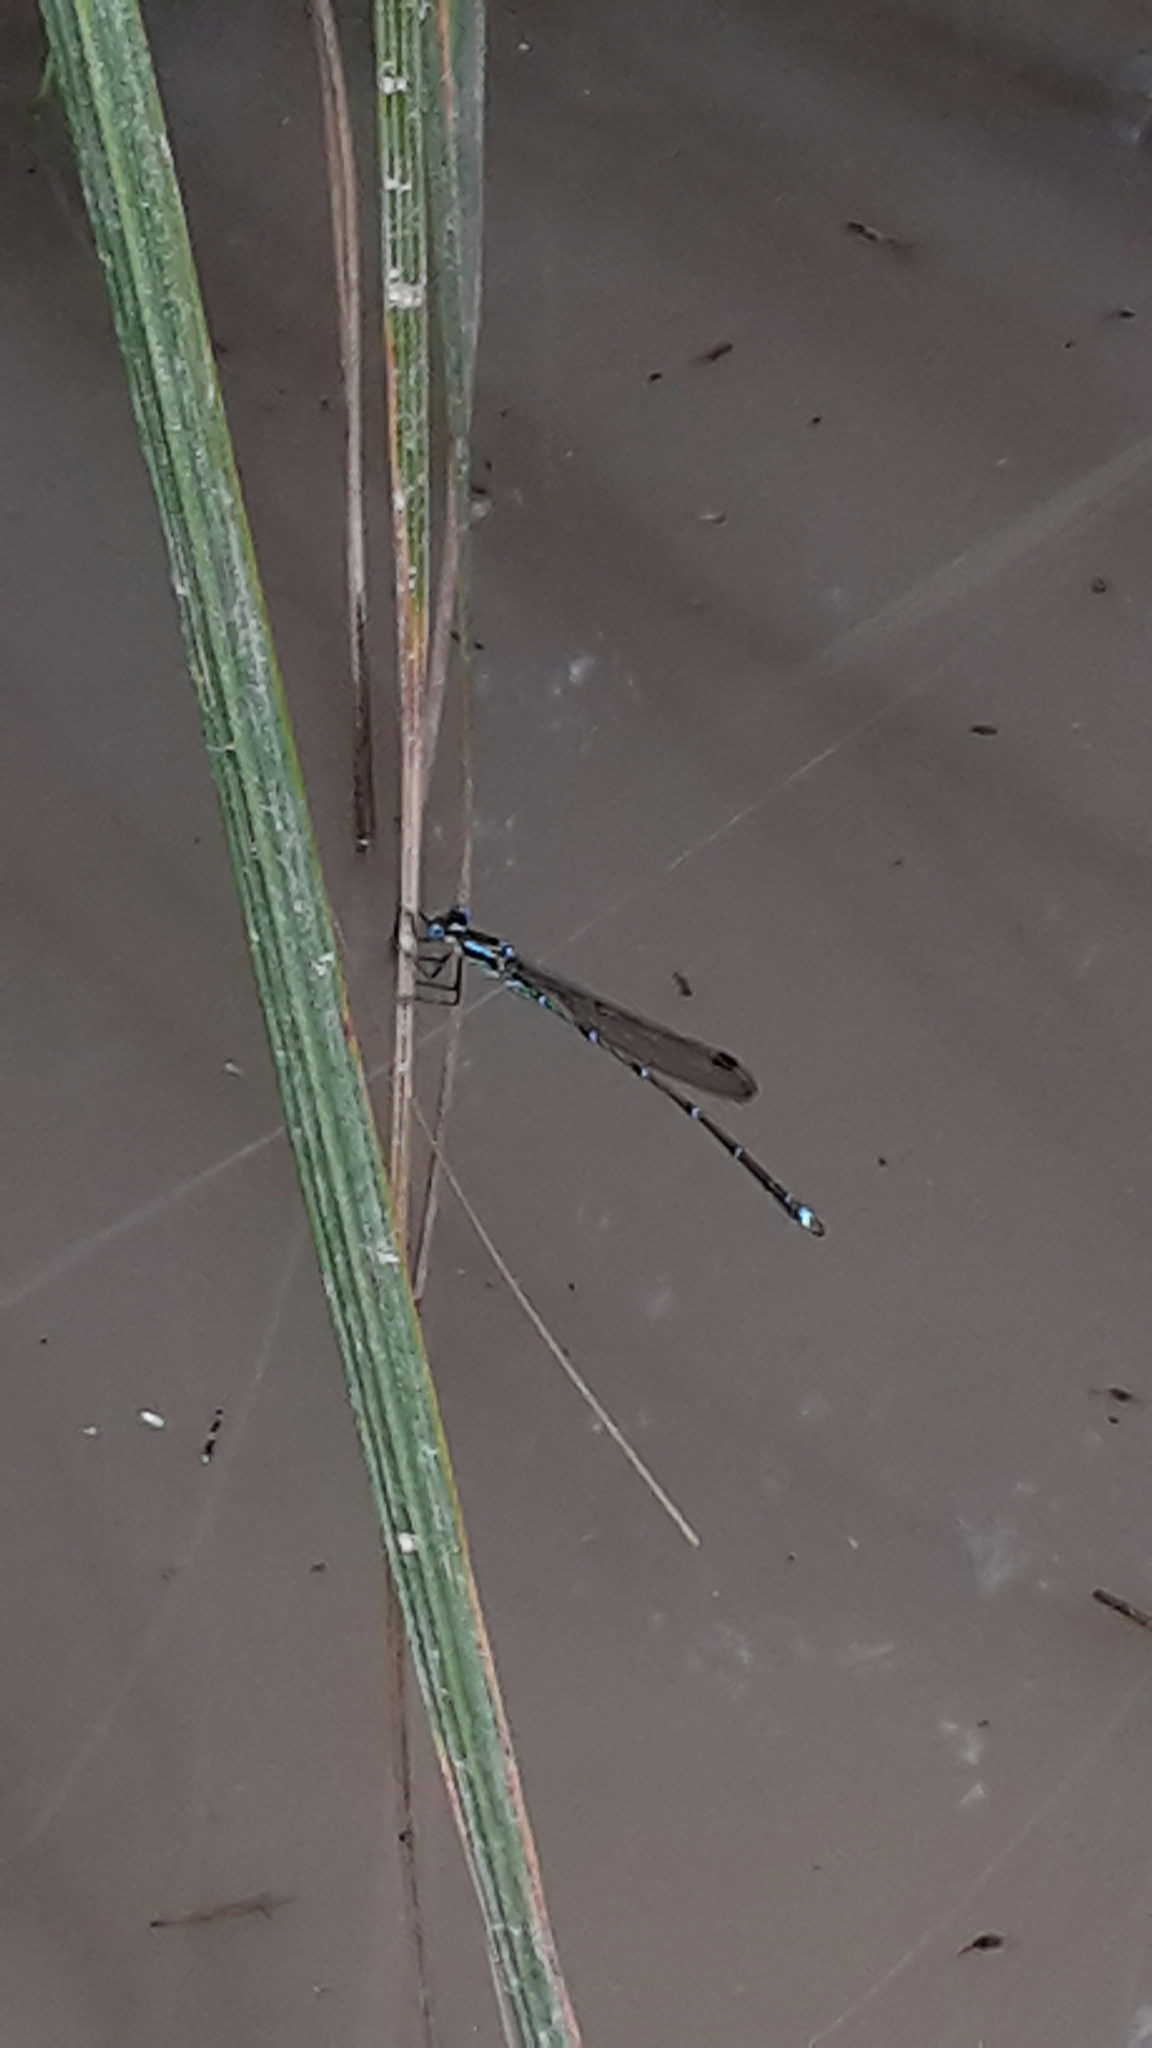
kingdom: Animalia
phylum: Arthropoda
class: Insecta
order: Odonata
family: Lestidae
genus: Austrolestes
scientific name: Austrolestes colensonis
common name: Blue damselfly
